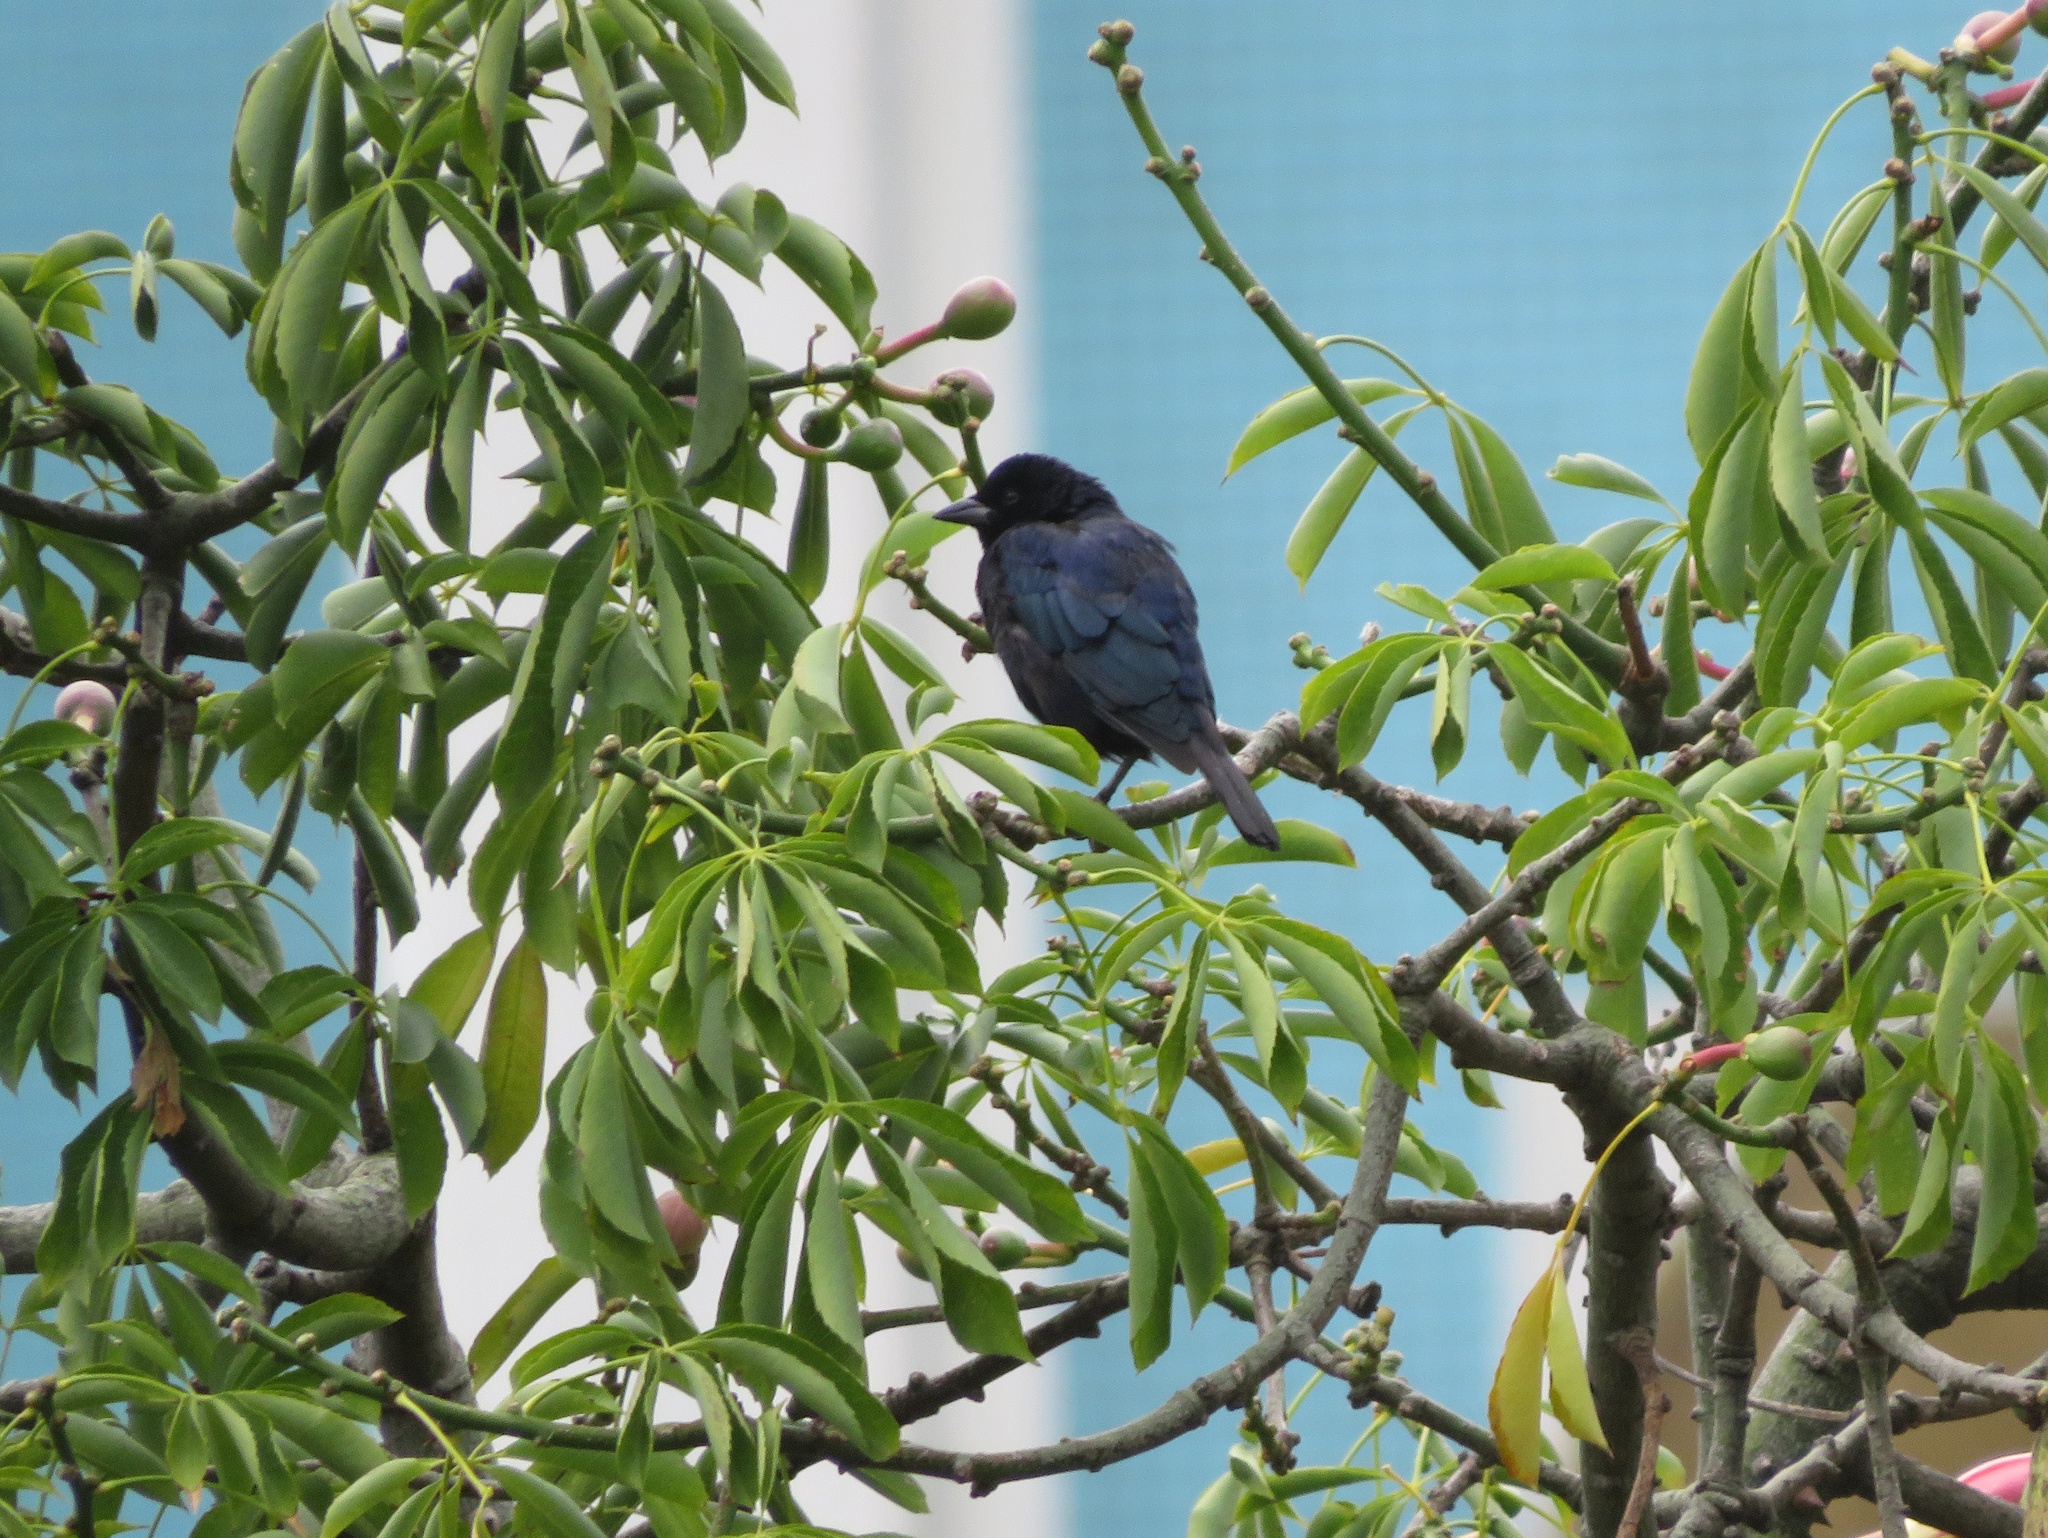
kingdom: Animalia
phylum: Chordata
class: Aves
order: Passeriformes
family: Icteridae
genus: Molothrus
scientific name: Molothrus bonariensis
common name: Shiny cowbird
